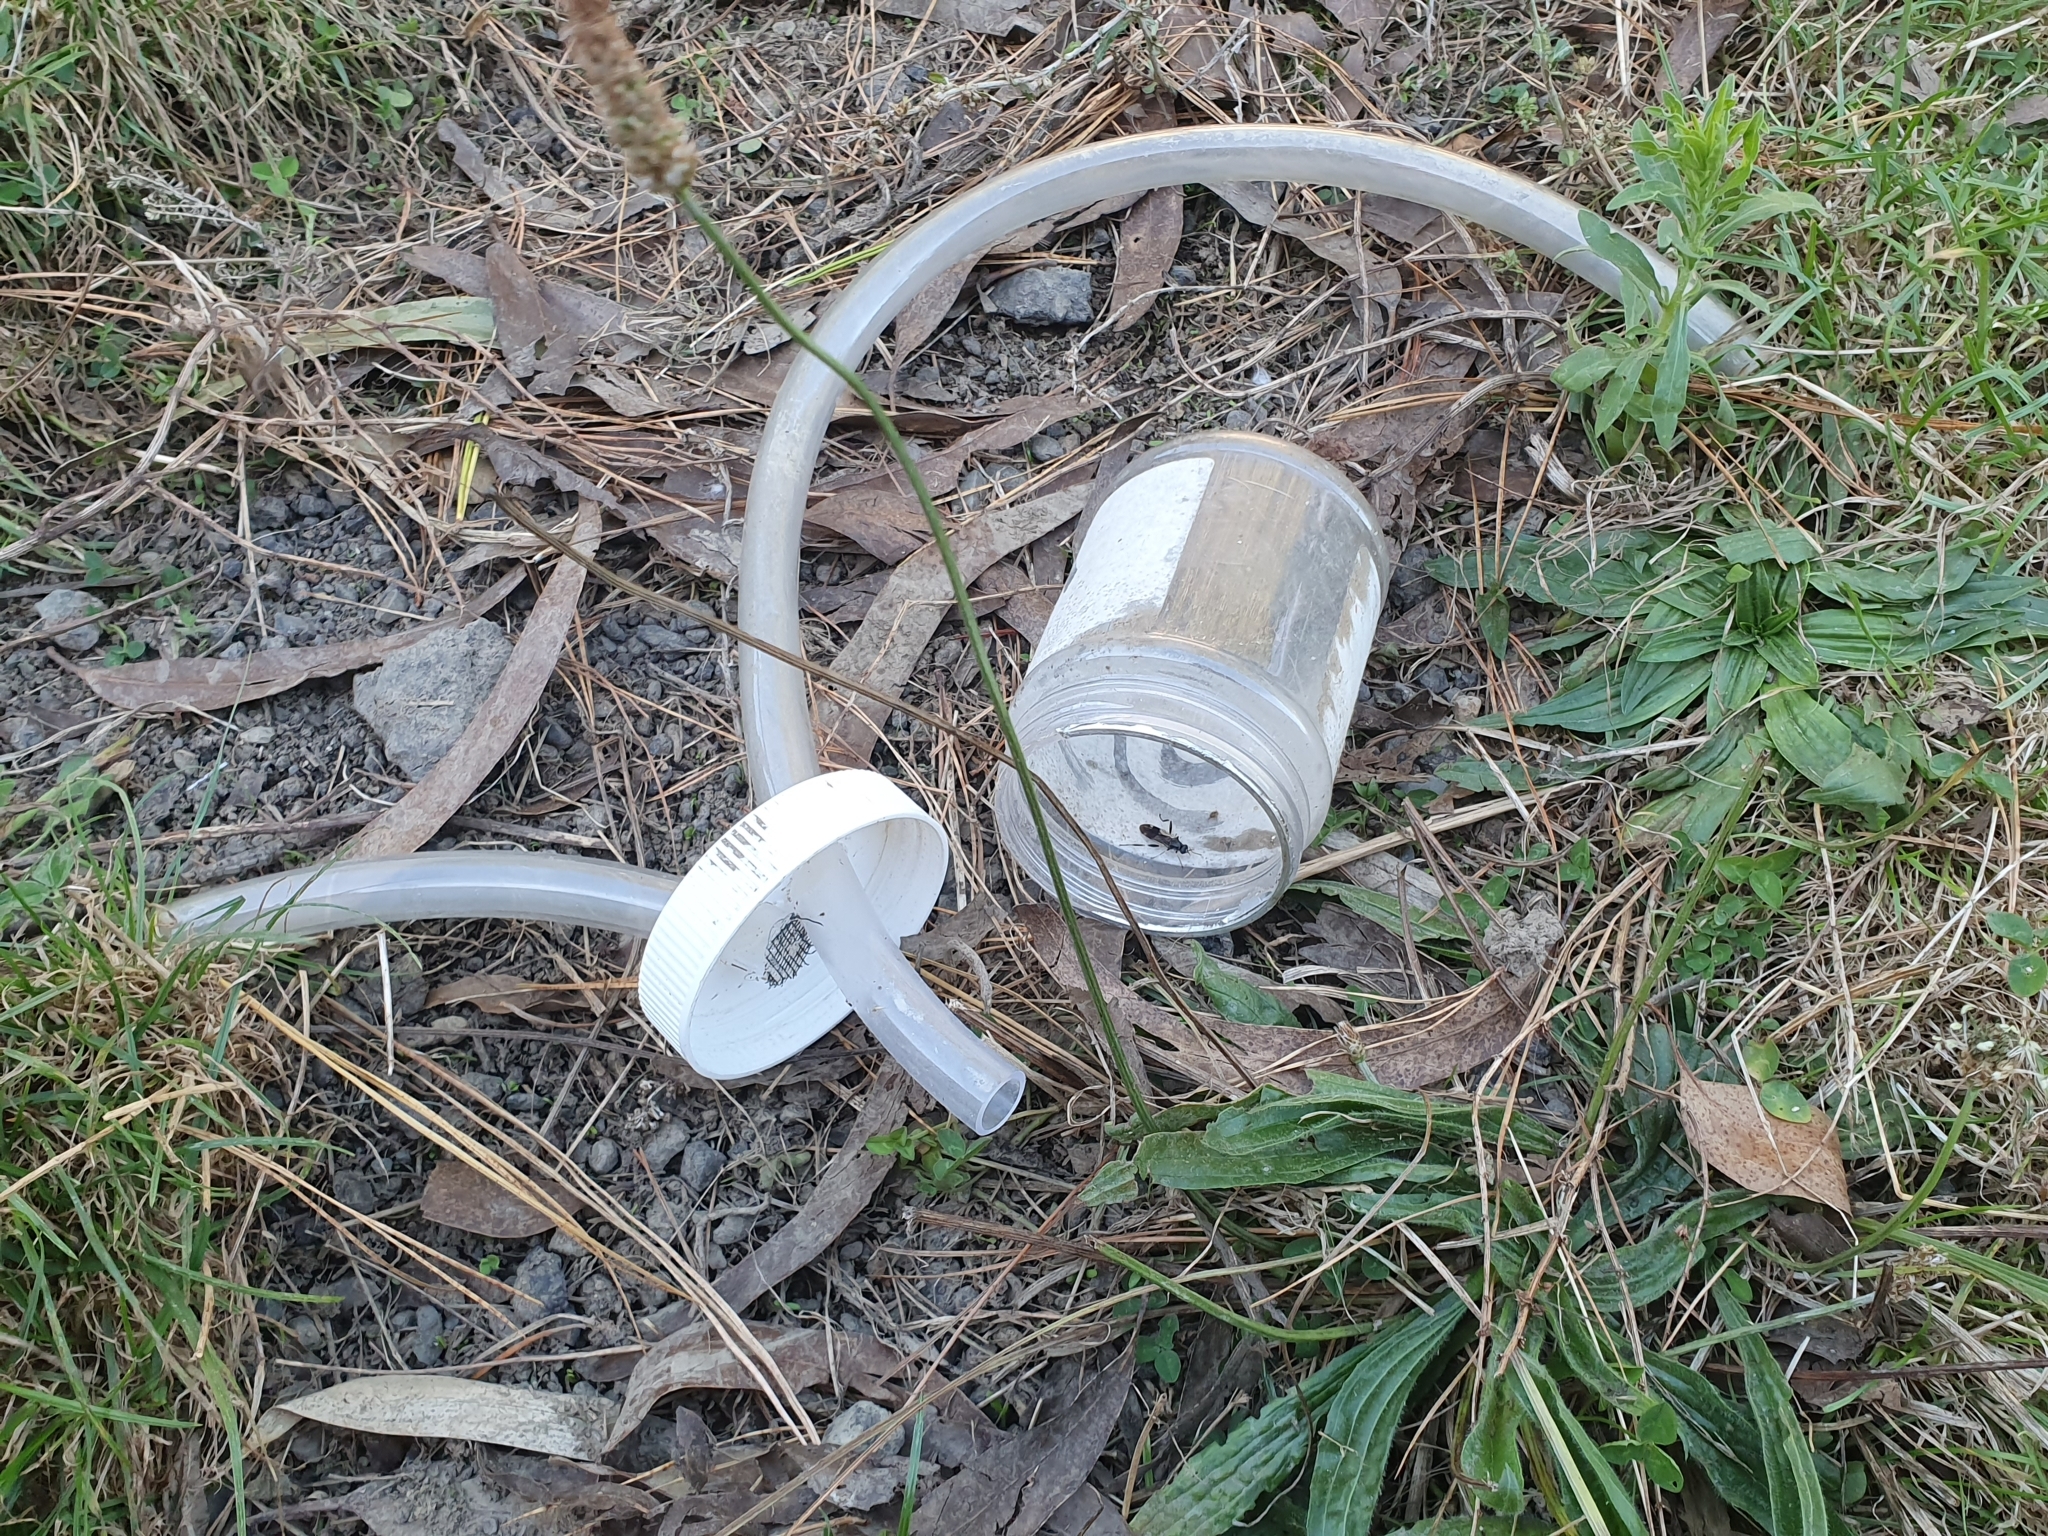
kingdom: Animalia
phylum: Arthropoda
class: Insecta
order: Diptera
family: Stratiomyidae
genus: Exaireta
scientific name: Exaireta spinigera
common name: Blue soldier fly
